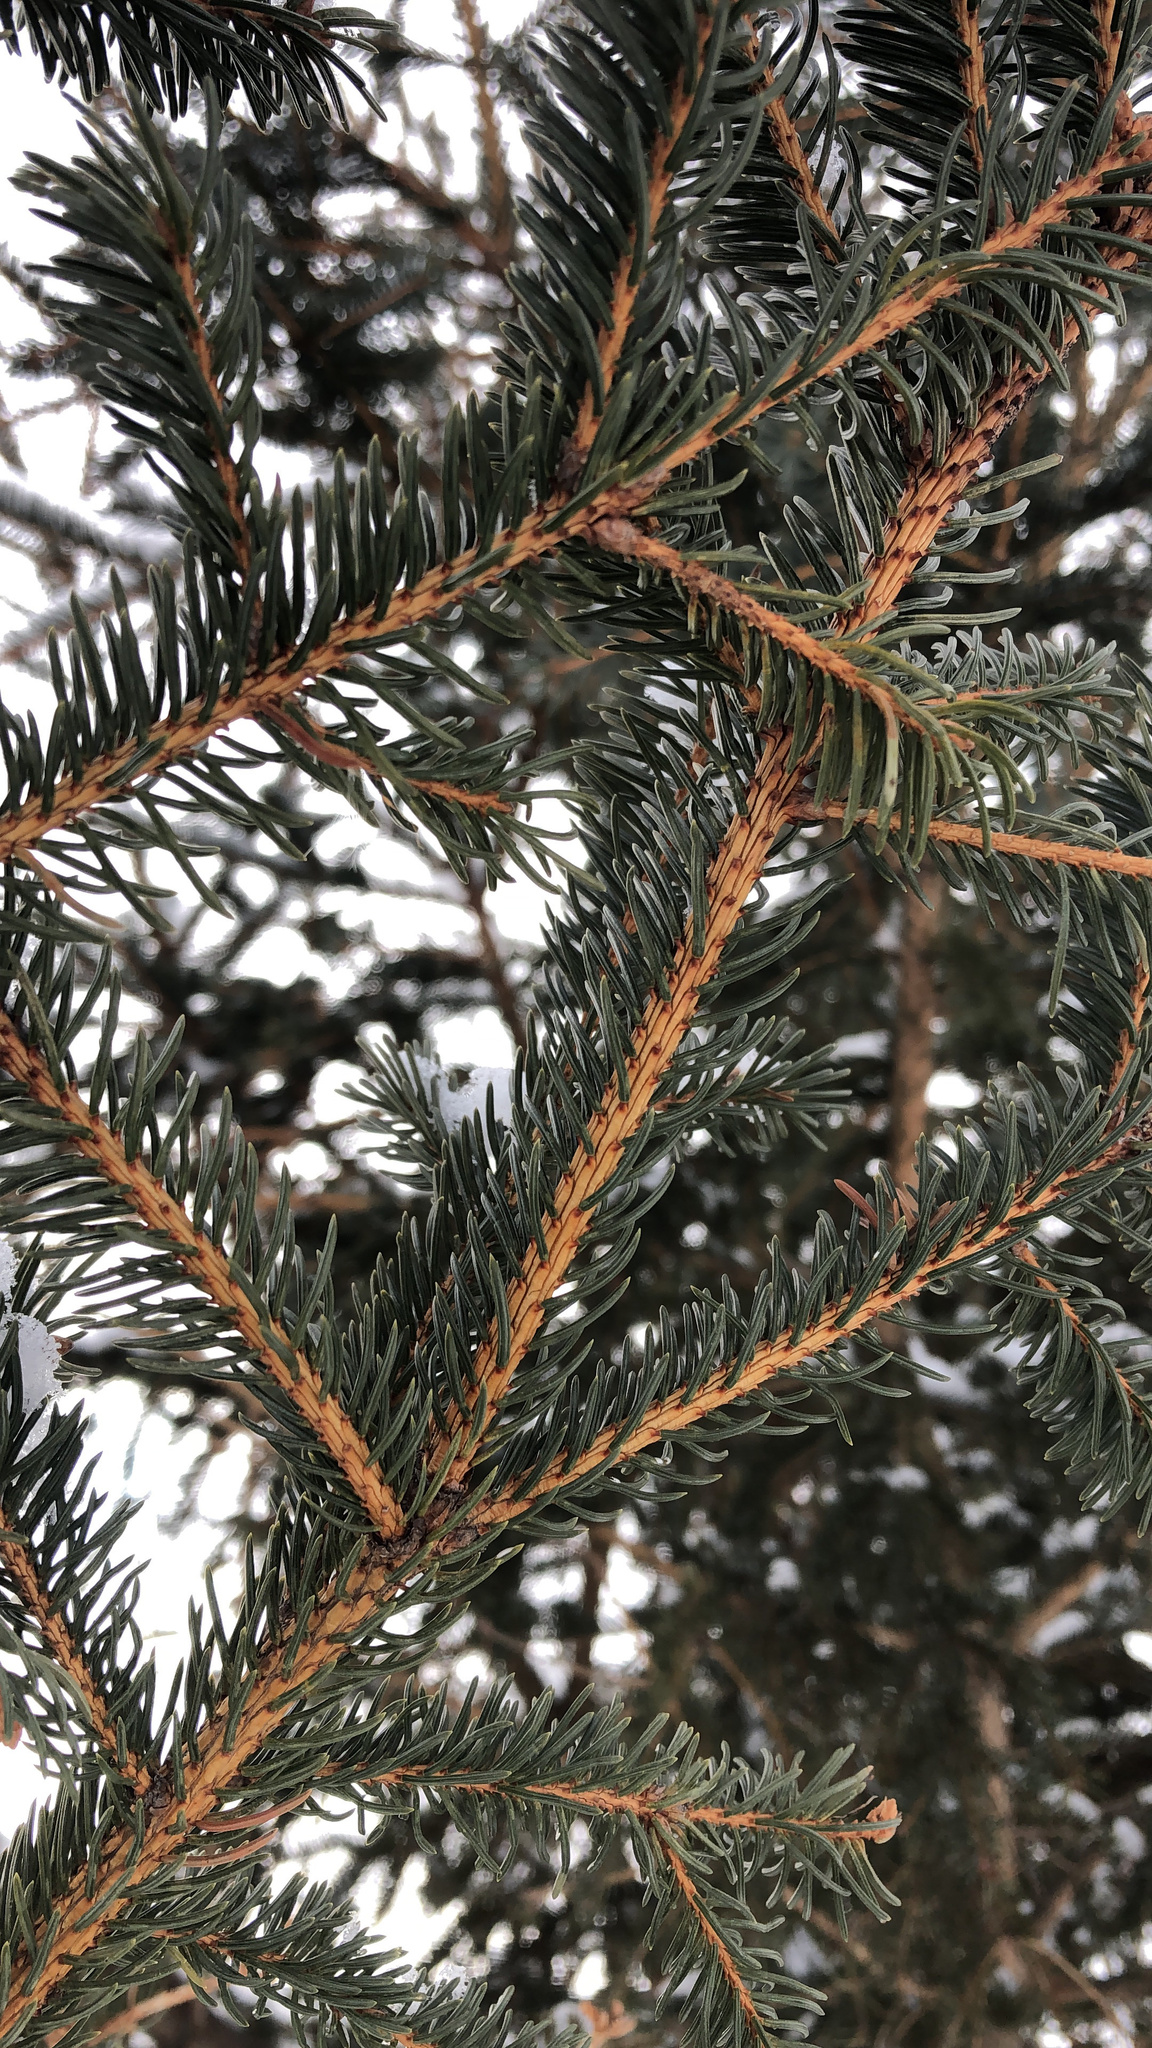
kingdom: Plantae
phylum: Tracheophyta
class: Pinopsida
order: Pinales
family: Pinaceae
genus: Picea
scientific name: Picea glauca
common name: White spruce
